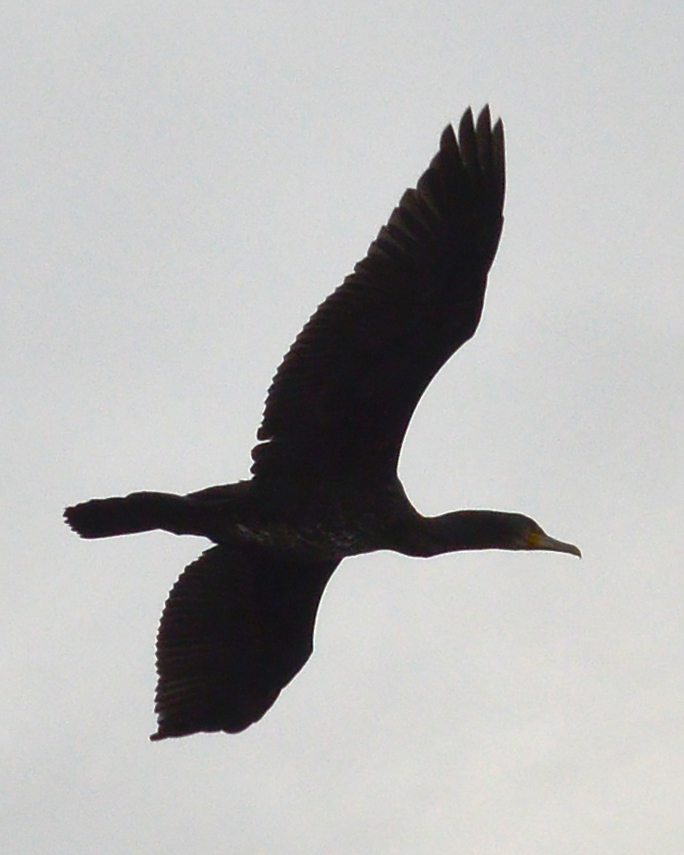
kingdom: Animalia
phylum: Chordata
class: Aves
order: Suliformes
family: Phalacrocoracidae
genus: Phalacrocorax
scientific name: Phalacrocorax carbo
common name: Great cormorant
